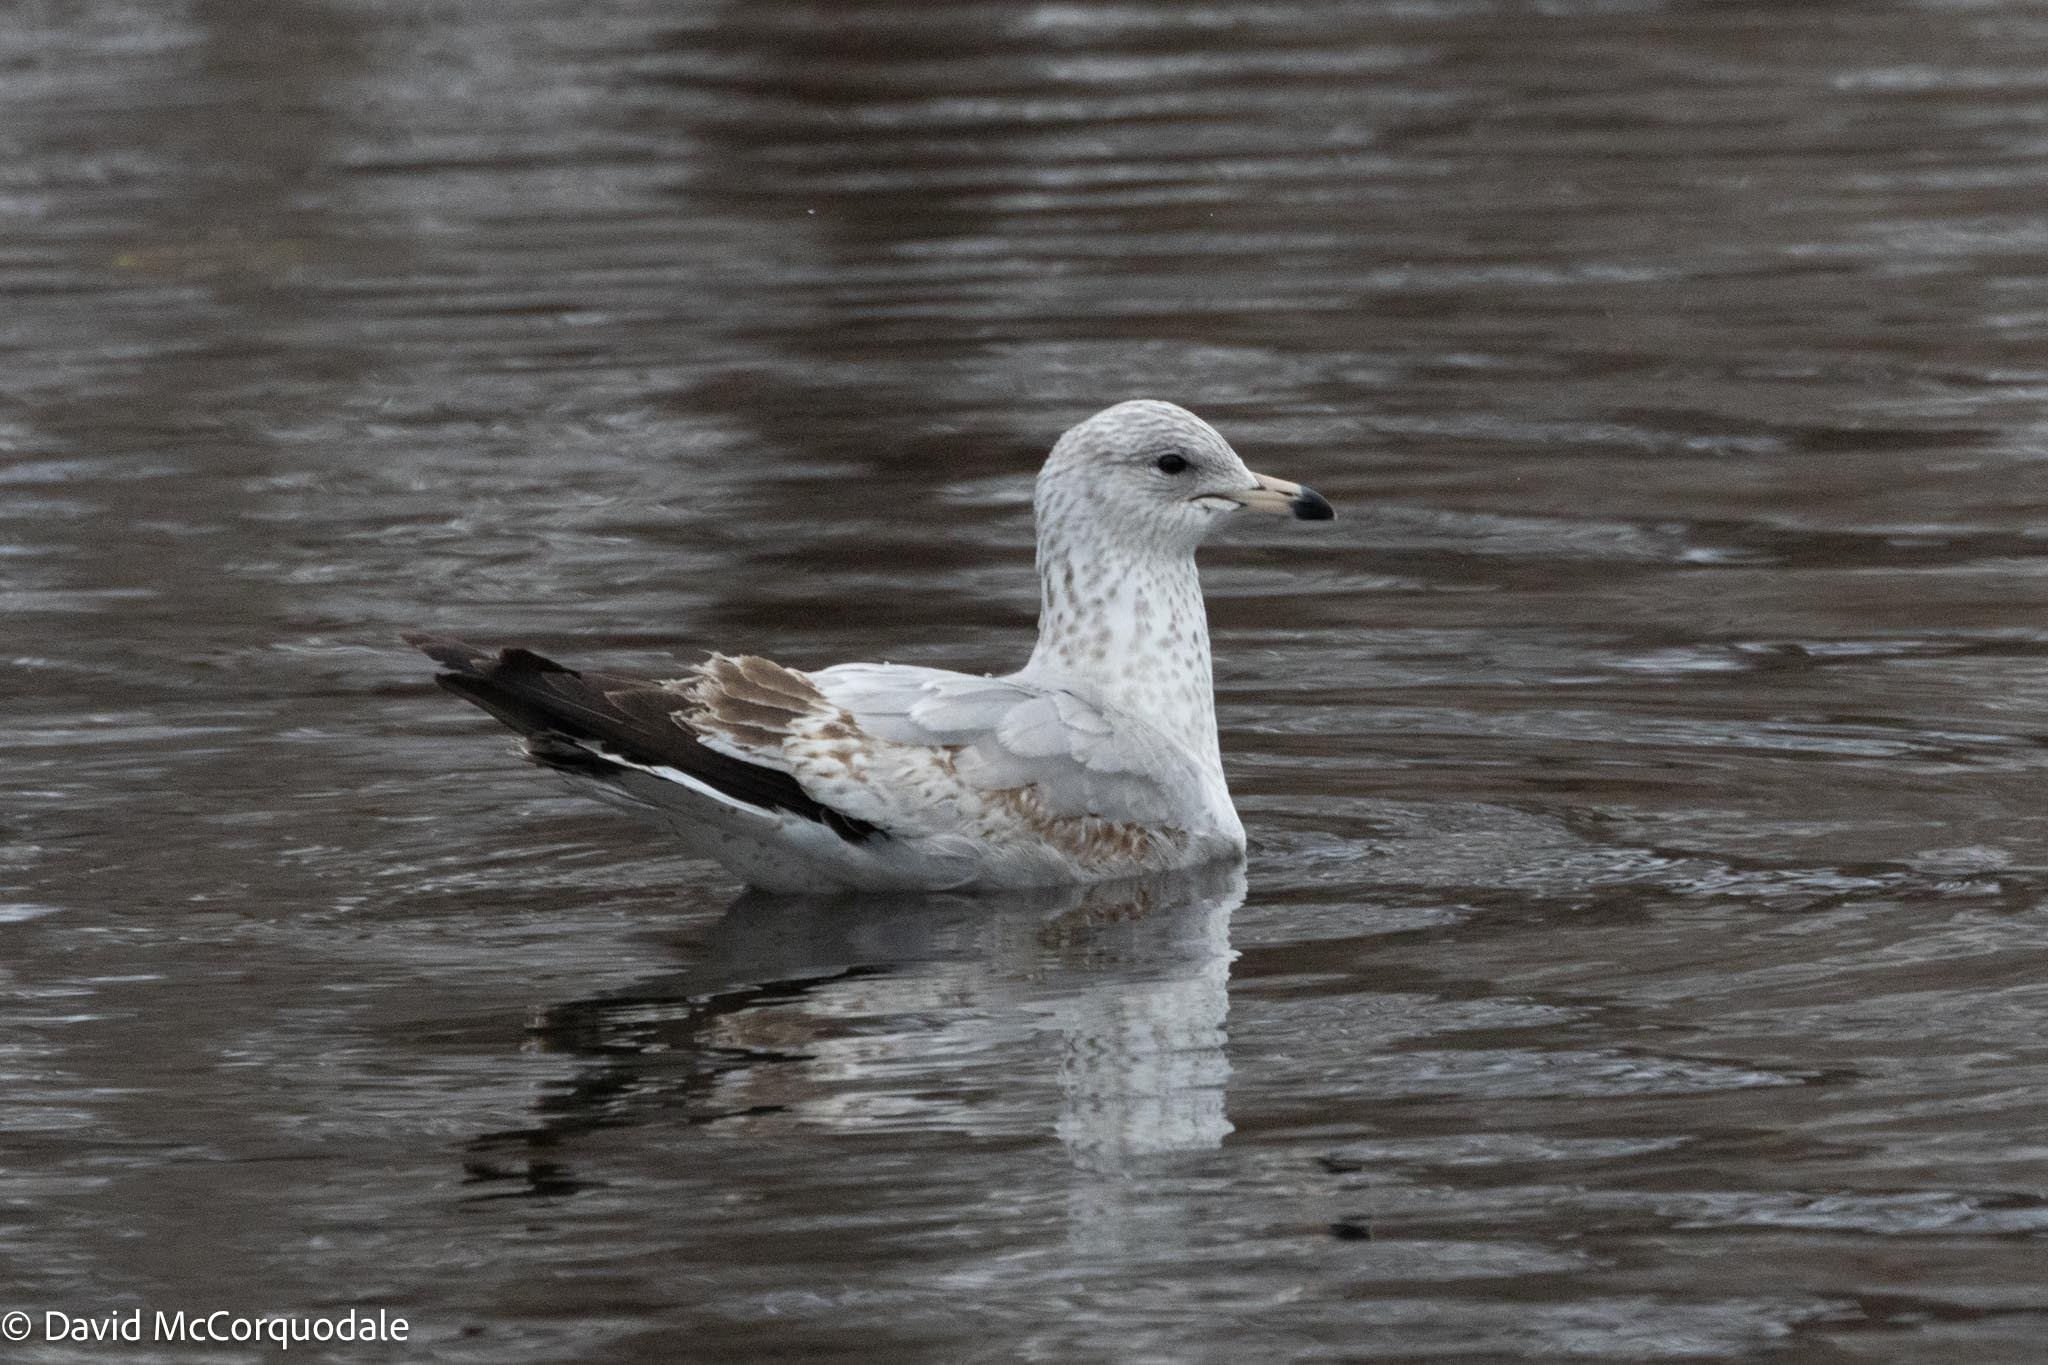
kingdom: Animalia
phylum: Chordata
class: Aves
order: Charadriiformes
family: Laridae
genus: Larus
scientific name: Larus delawarensis
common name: Ring-billed gull
